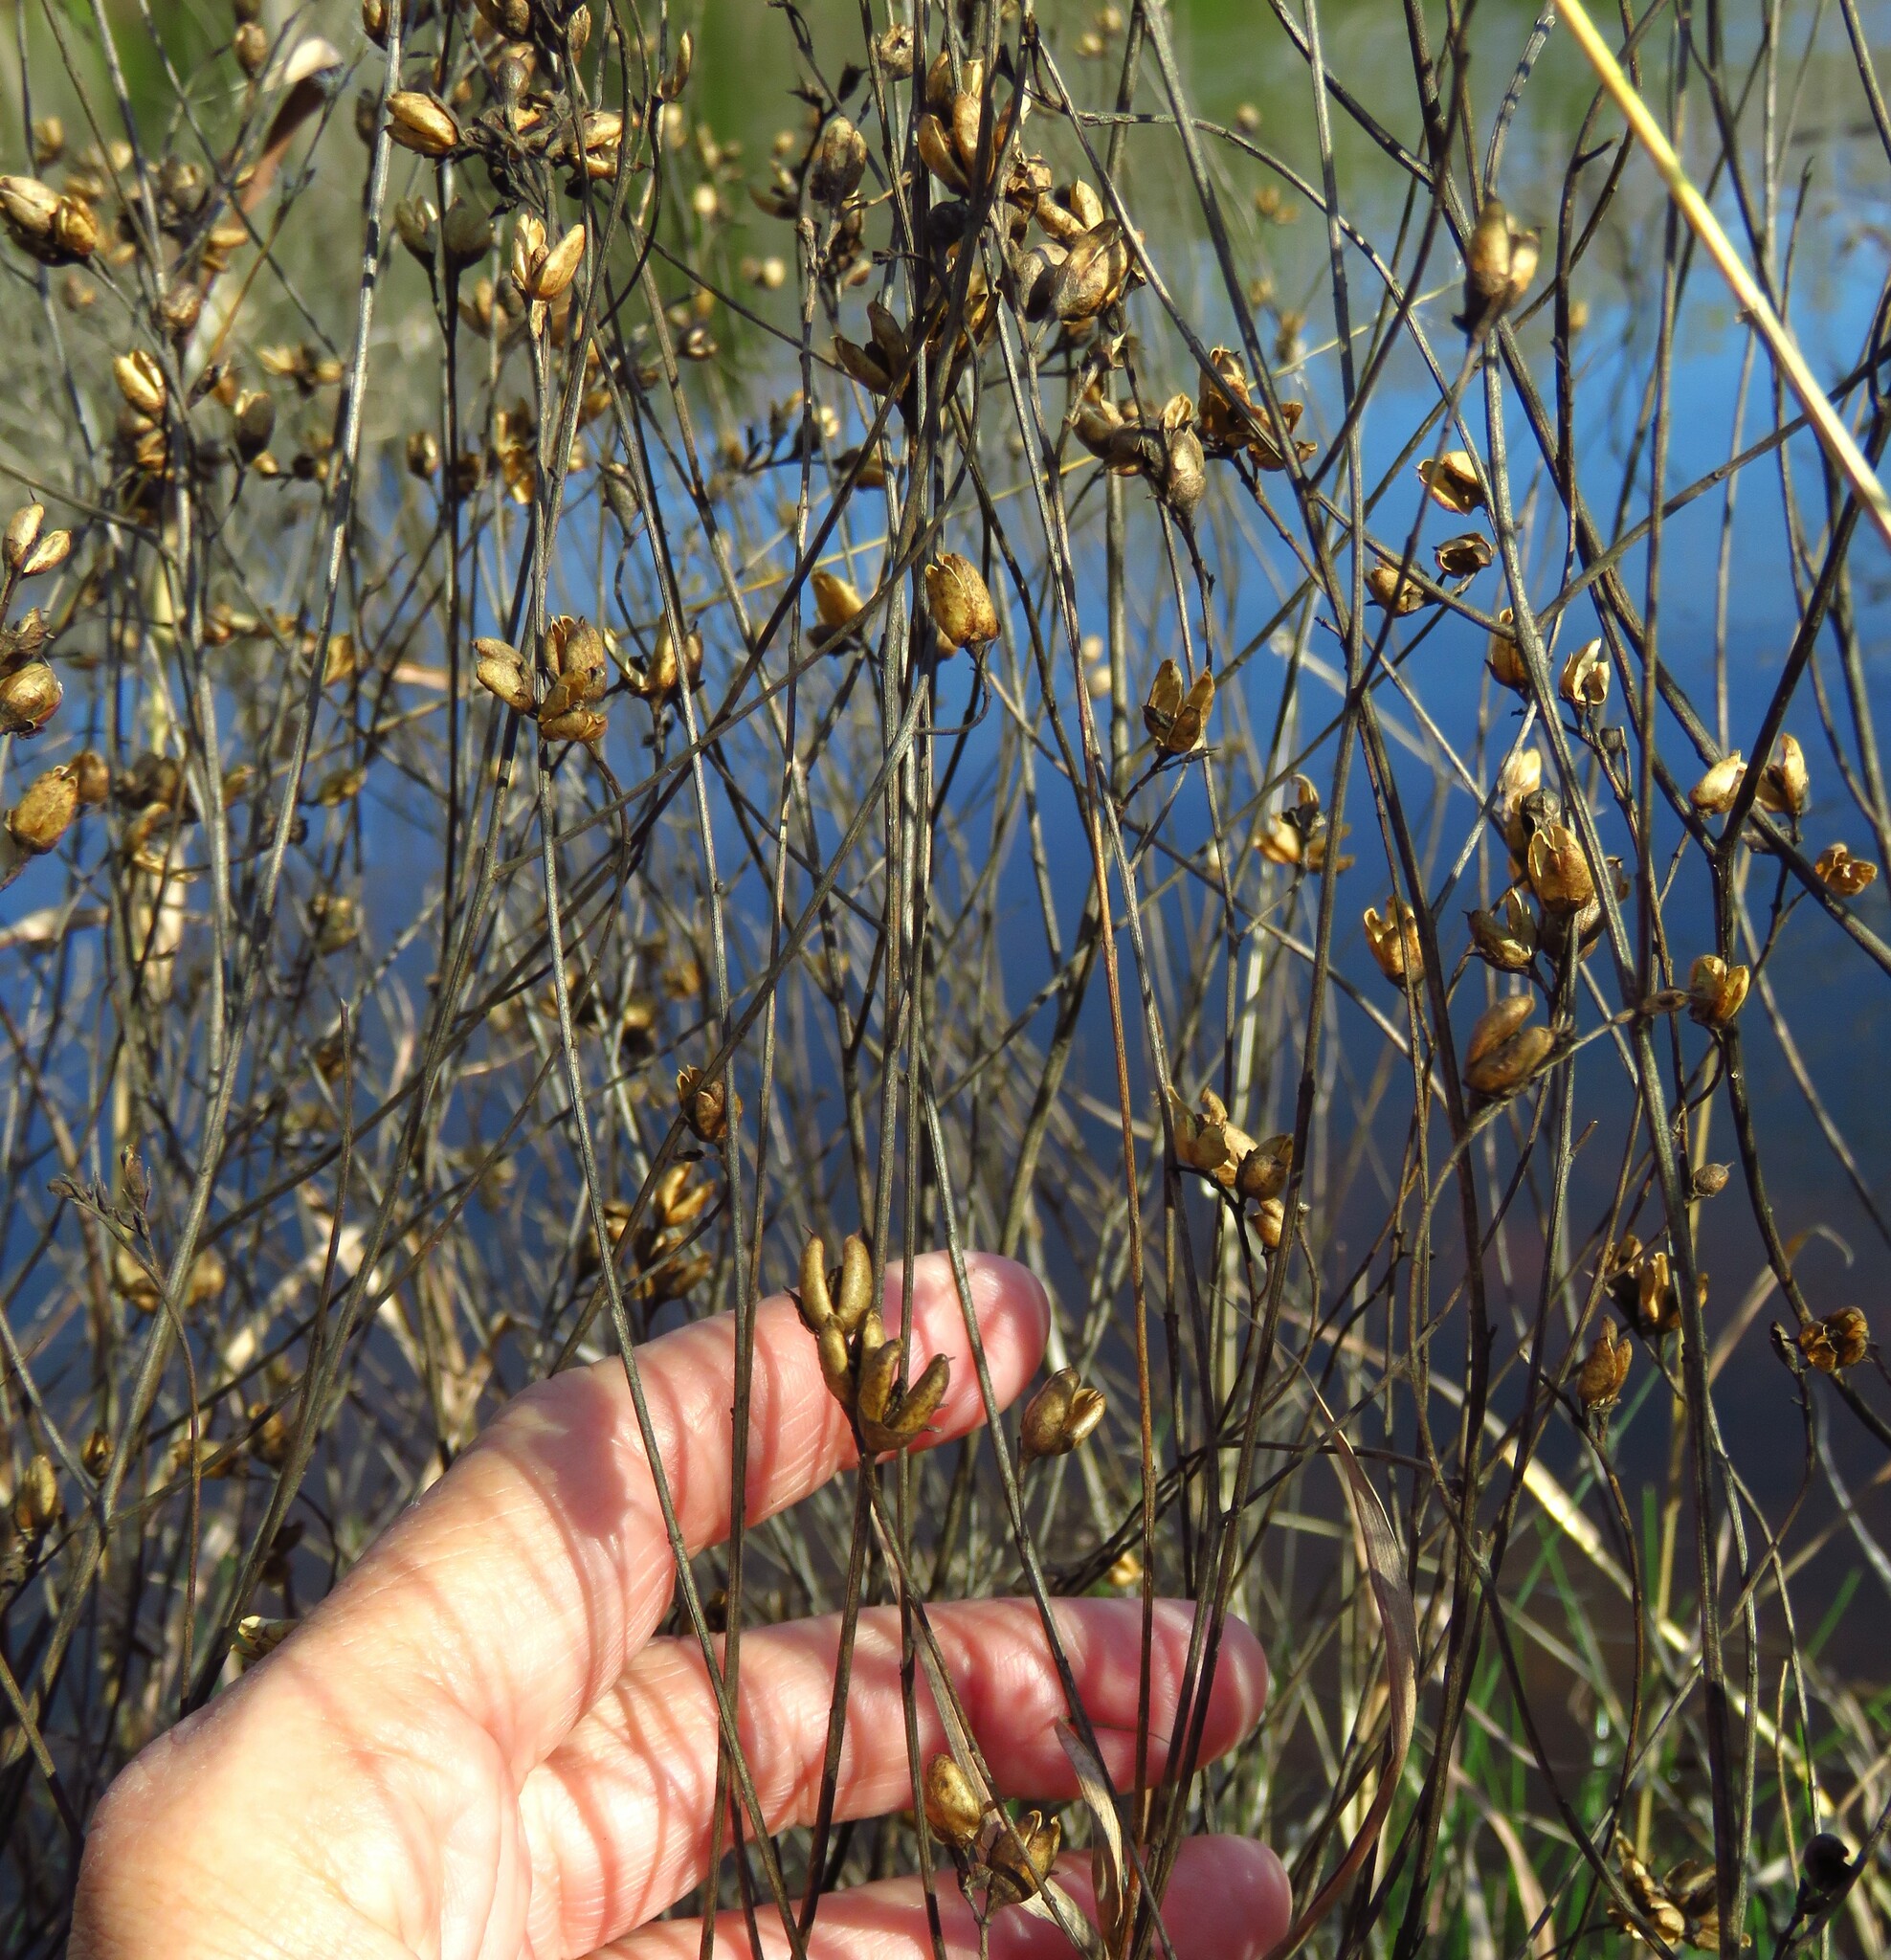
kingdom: Plantae
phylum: Tracheophyta
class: Magnoliopsida
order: Lamiales
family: Orobanchaceae
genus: Agalinis
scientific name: Agalinis heterophylla
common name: Prairie agalinis
